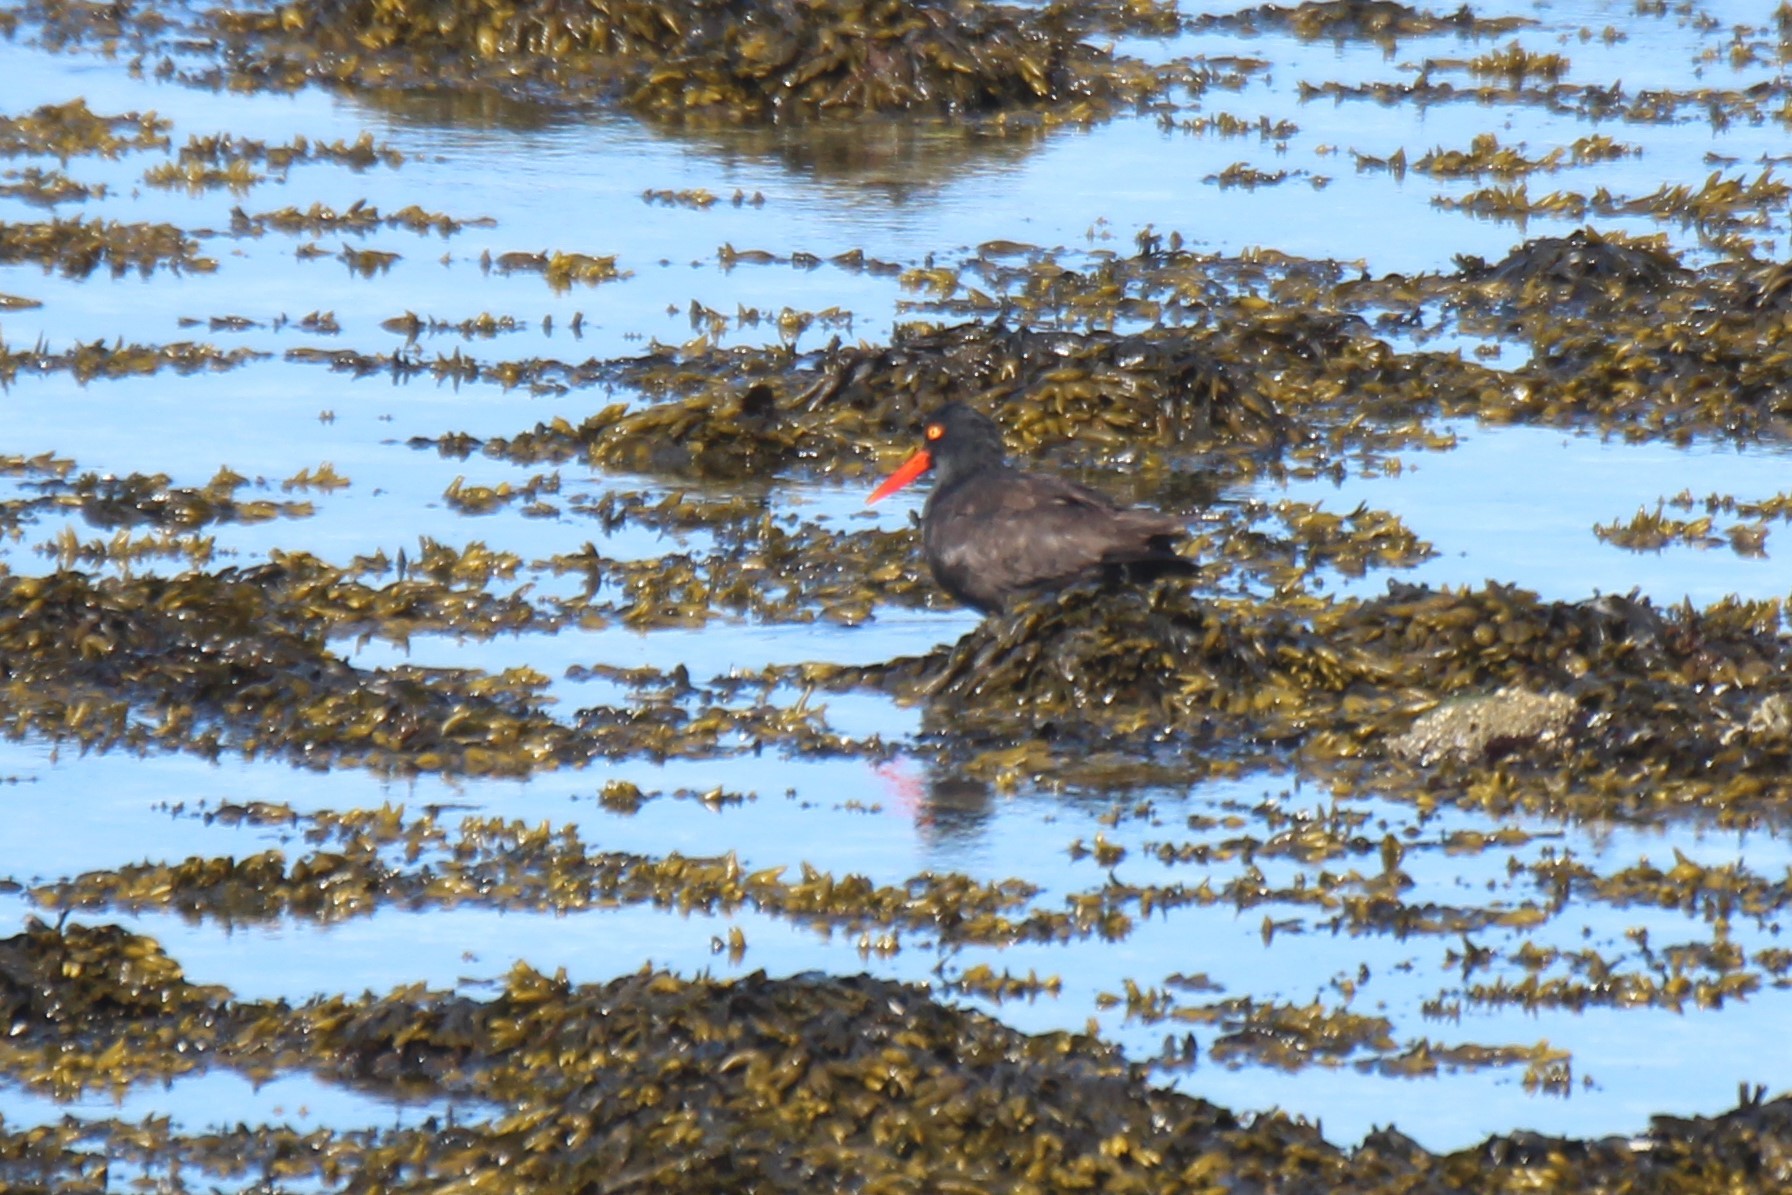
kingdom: Animalia
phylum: Chordata
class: Aves
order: Charadriiformes
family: Haematopodidae
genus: Haematopus
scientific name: Haematopus bachmani
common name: Black oystercatcher
